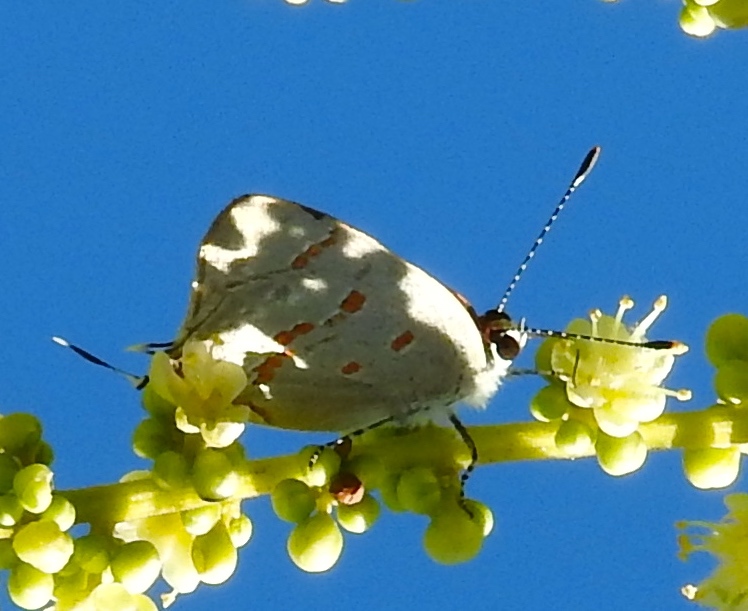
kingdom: Animalia
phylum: Arthropoda
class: Insecta
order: Lepidoptera
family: Lycaenidae
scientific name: Lycaenidae
